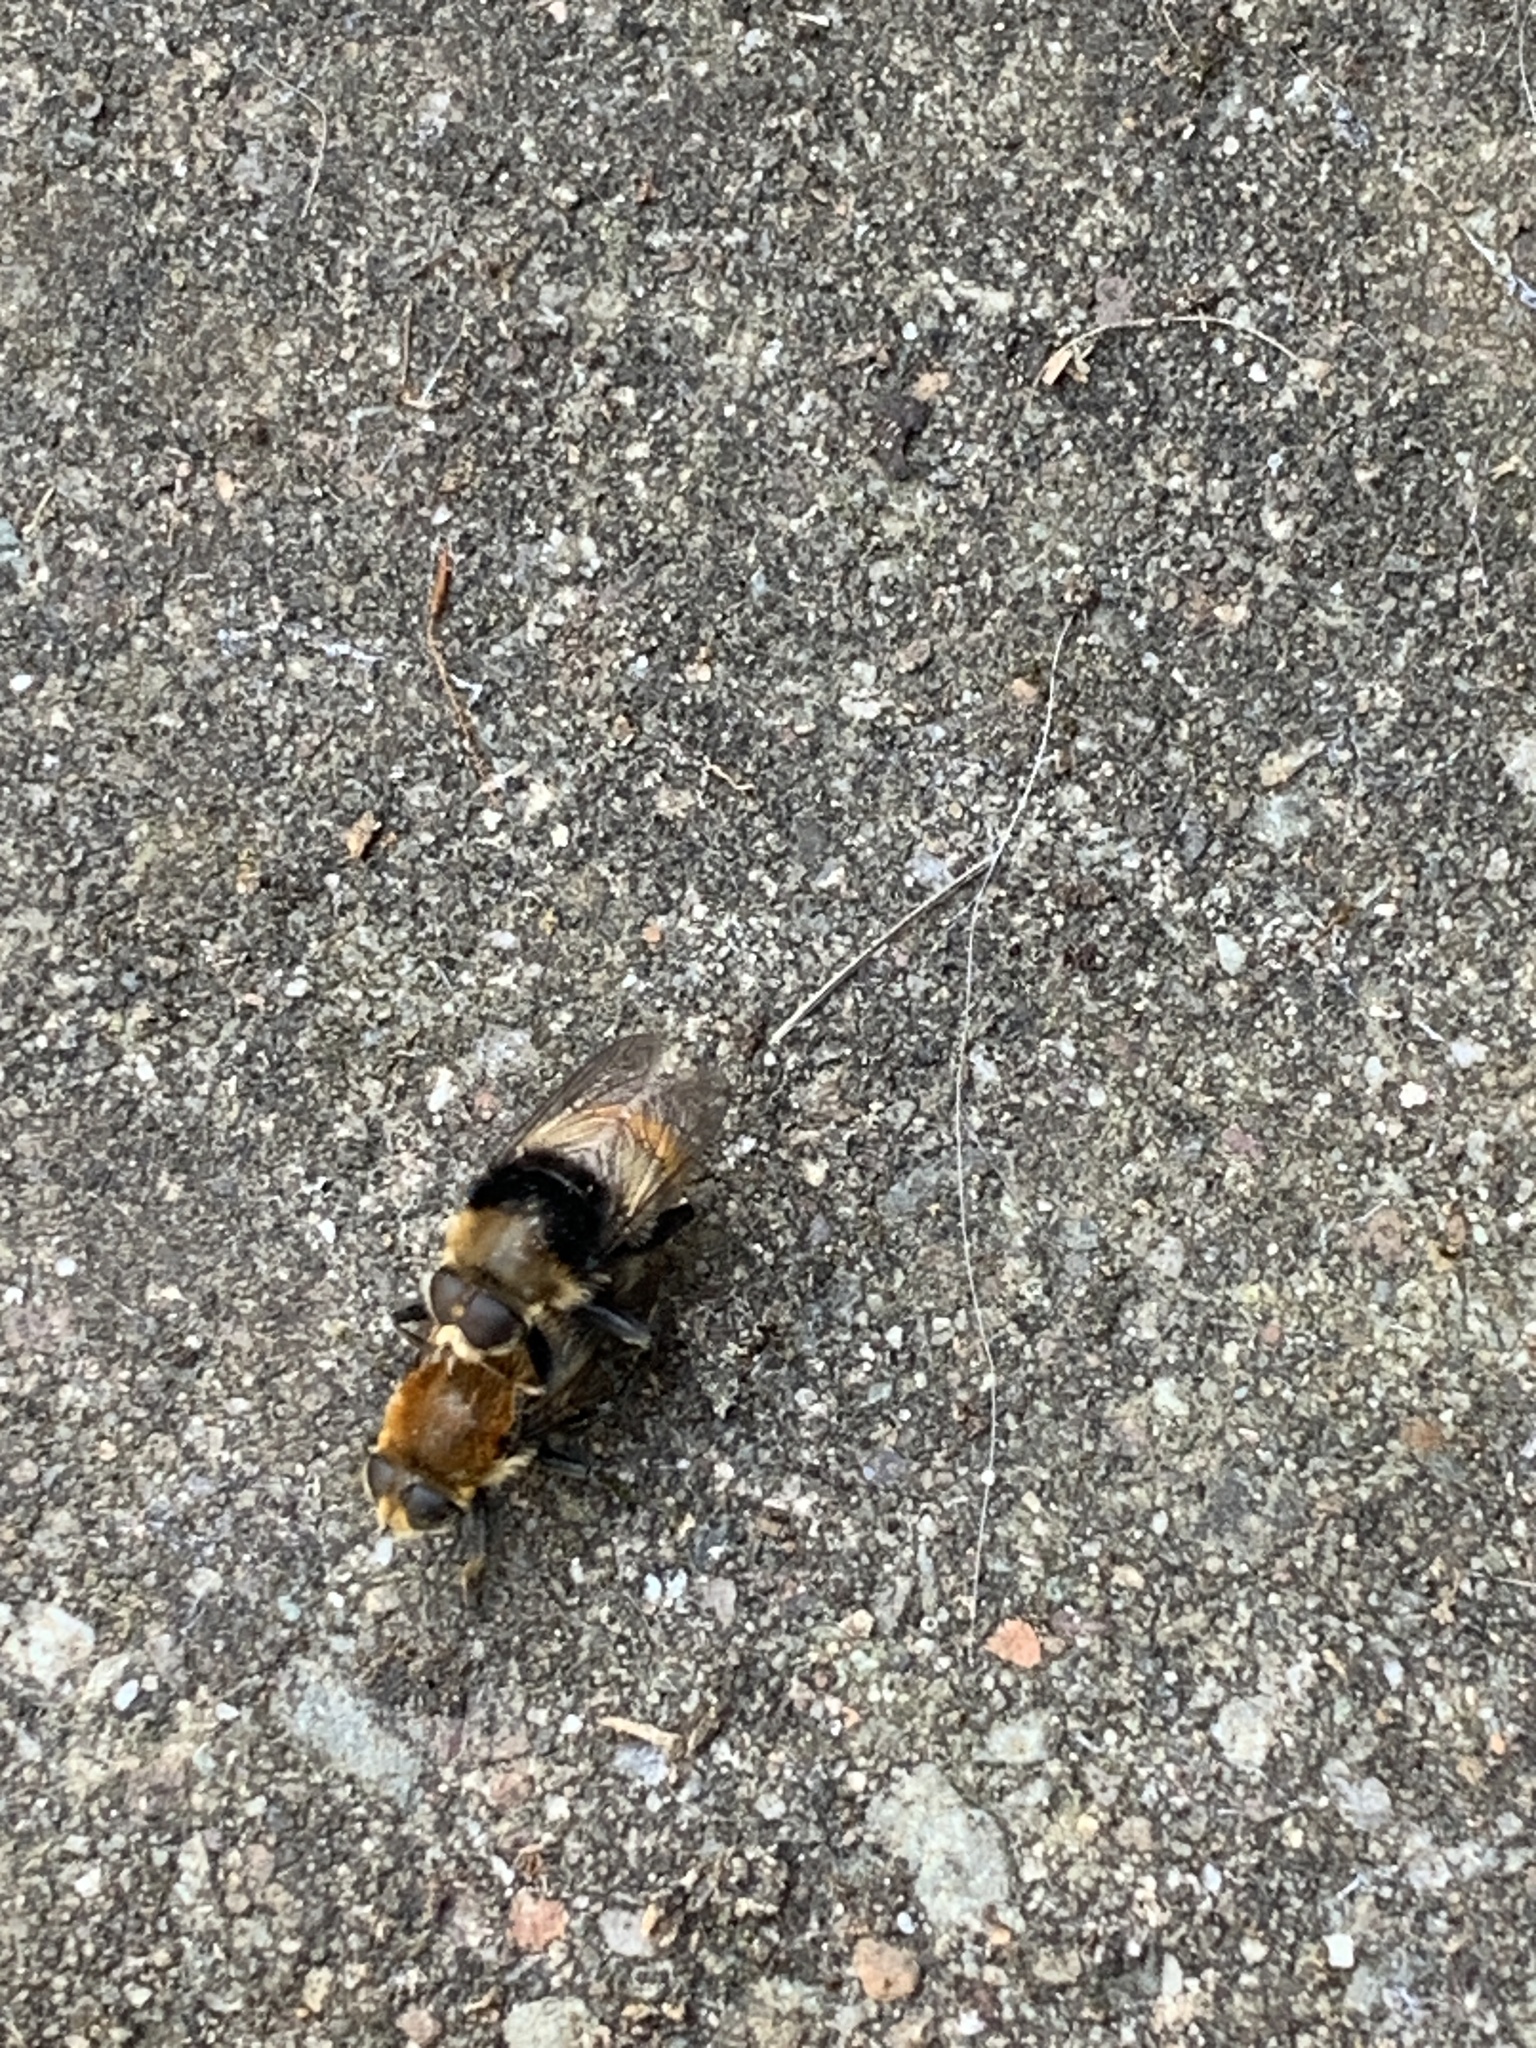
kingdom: Animalia
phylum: Arthropoda
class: Insecta
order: Diptera
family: Syrphidae
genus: Merodon
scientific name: Merodon equestris
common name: Greater bulb-fly
